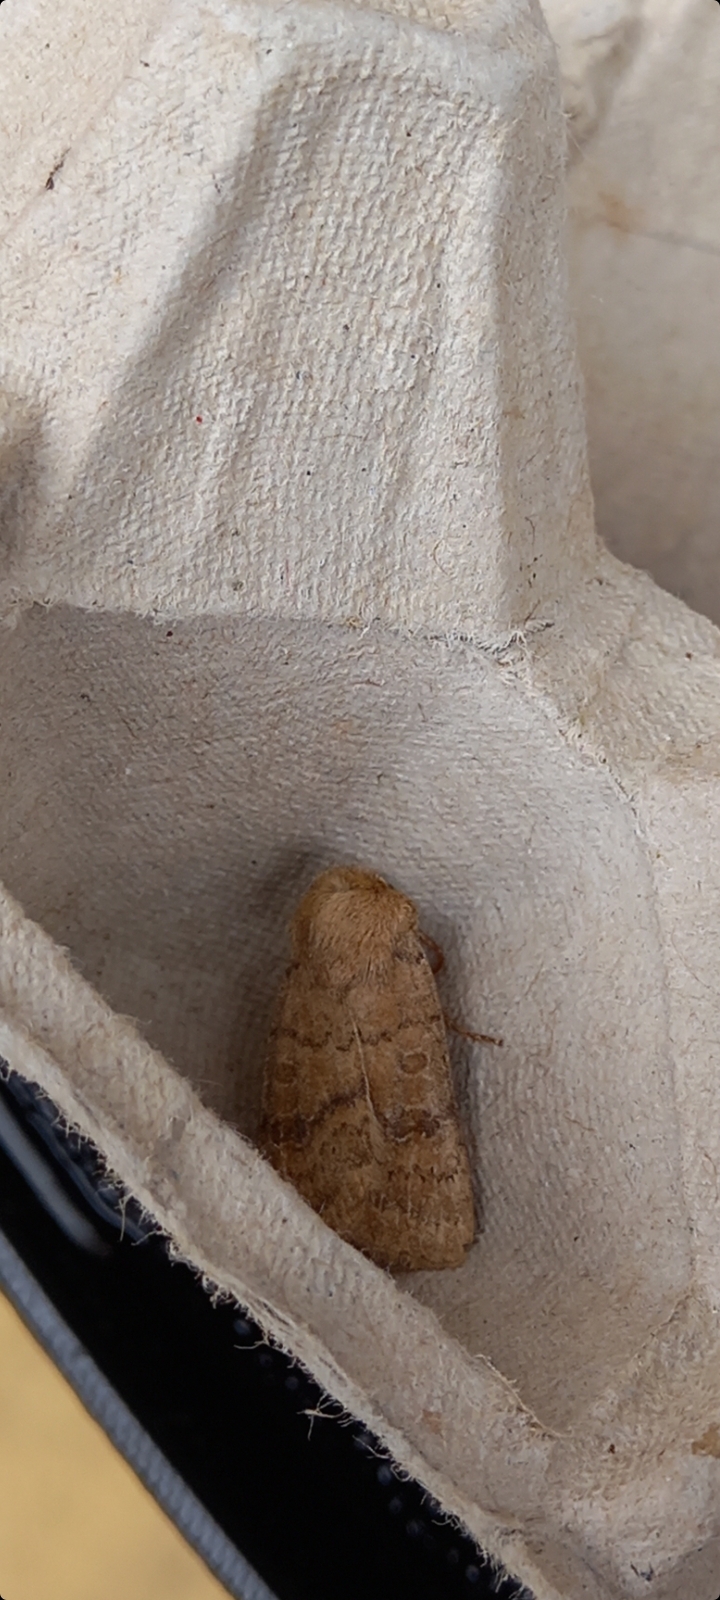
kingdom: Animalia
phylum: Arthropoda
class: Insecta
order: Lepidoptera
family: Noctuidae
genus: Hoplodrina
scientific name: Hoplodrina octogenaria
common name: Uncertain
